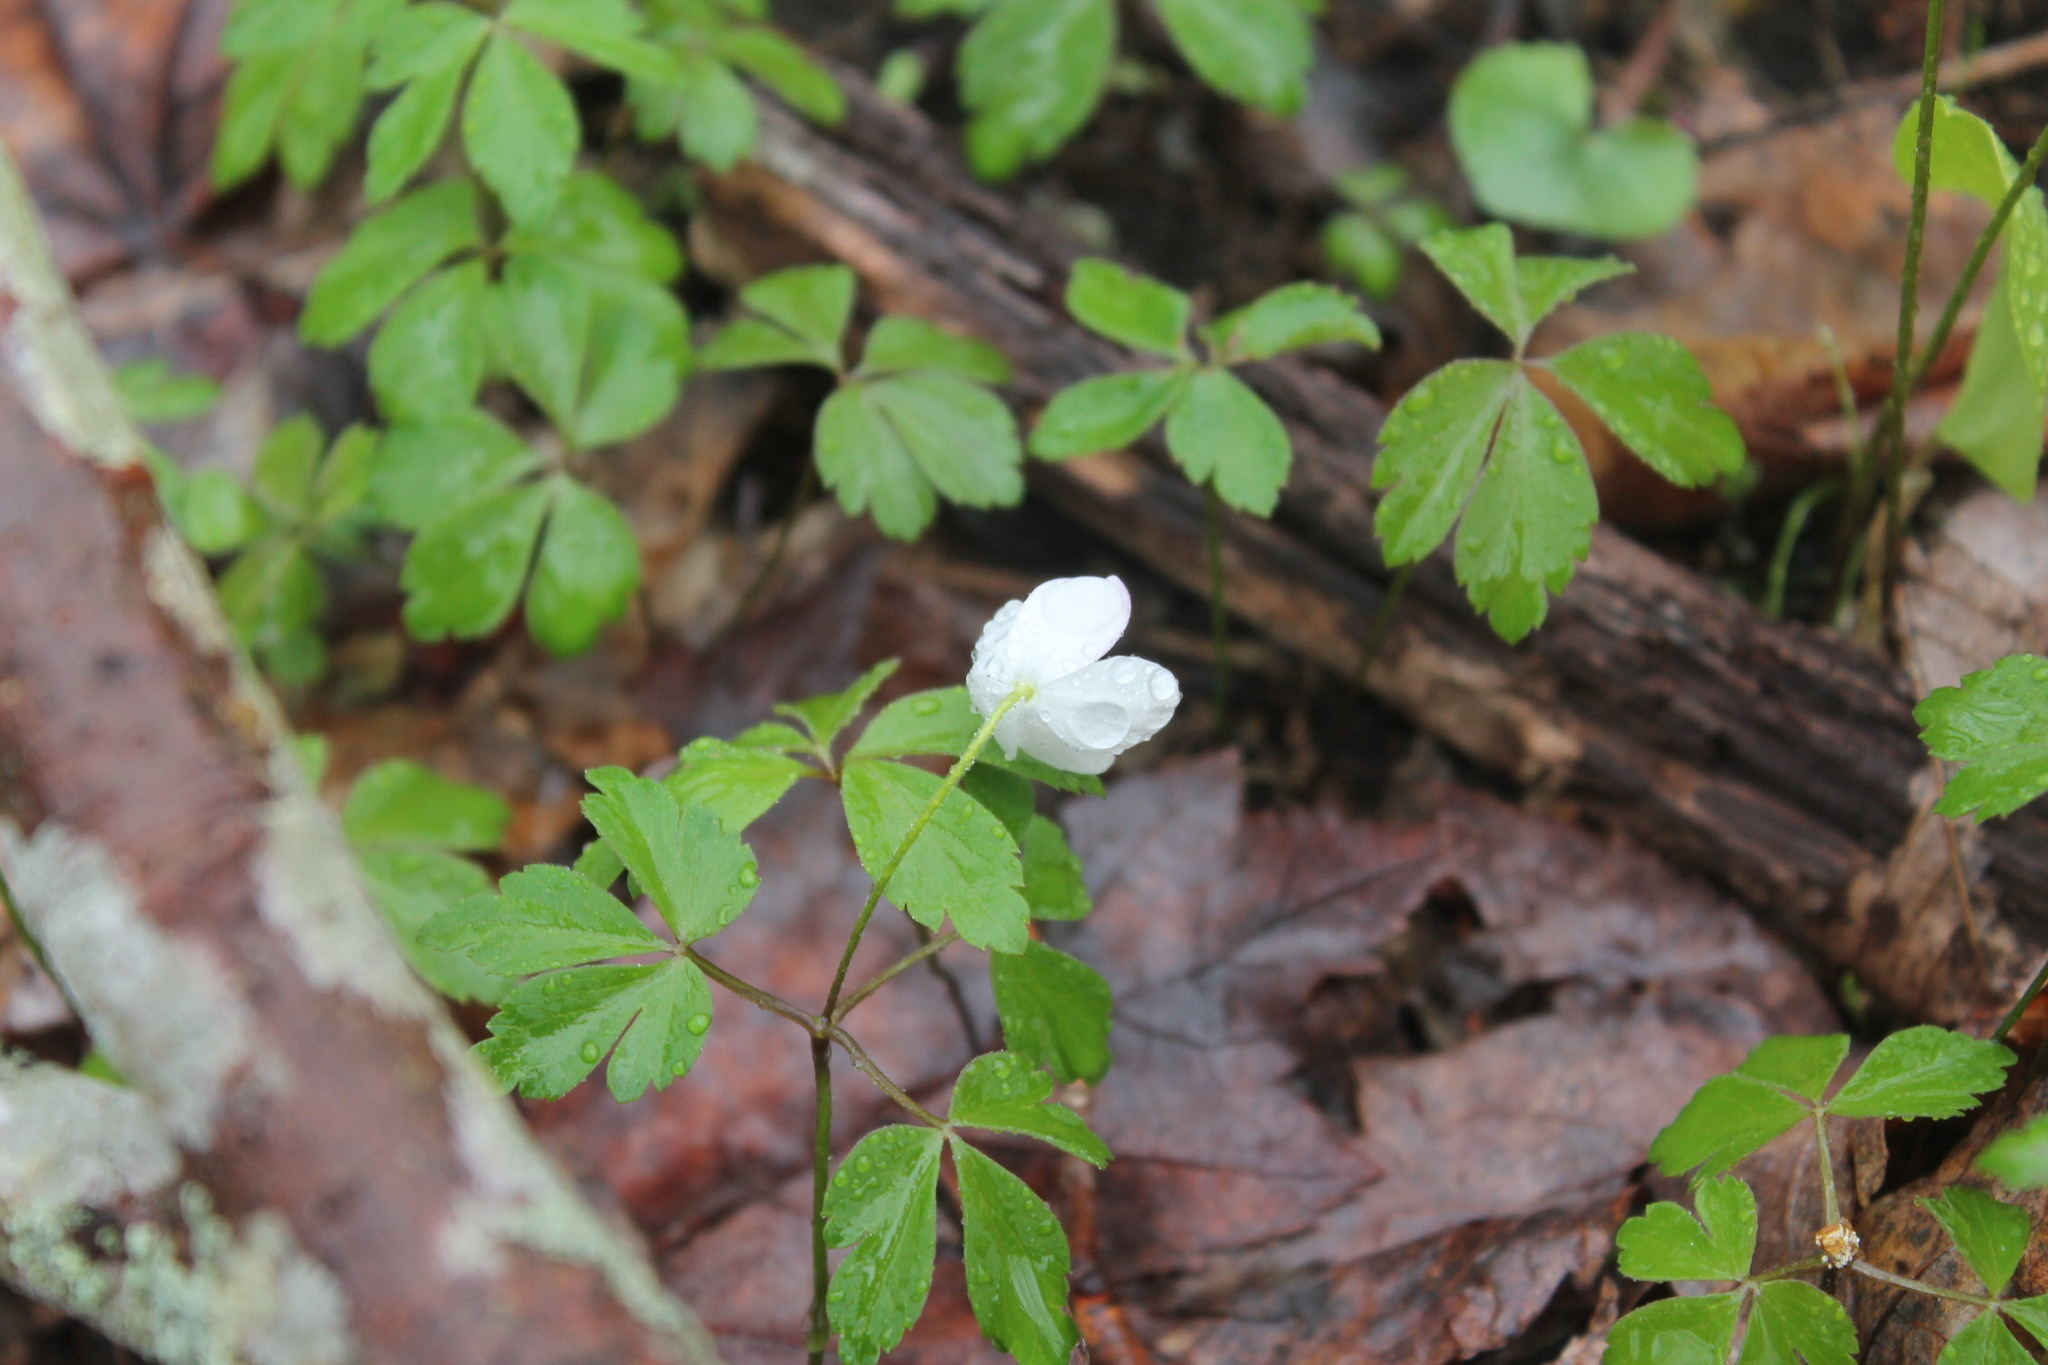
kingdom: Plantae
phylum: Tracheophyta
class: Magnoliopsida
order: Ranunculales
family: Ranunculaceae
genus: Anemone
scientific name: Anemone quinquefolia
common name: Wood anemone
